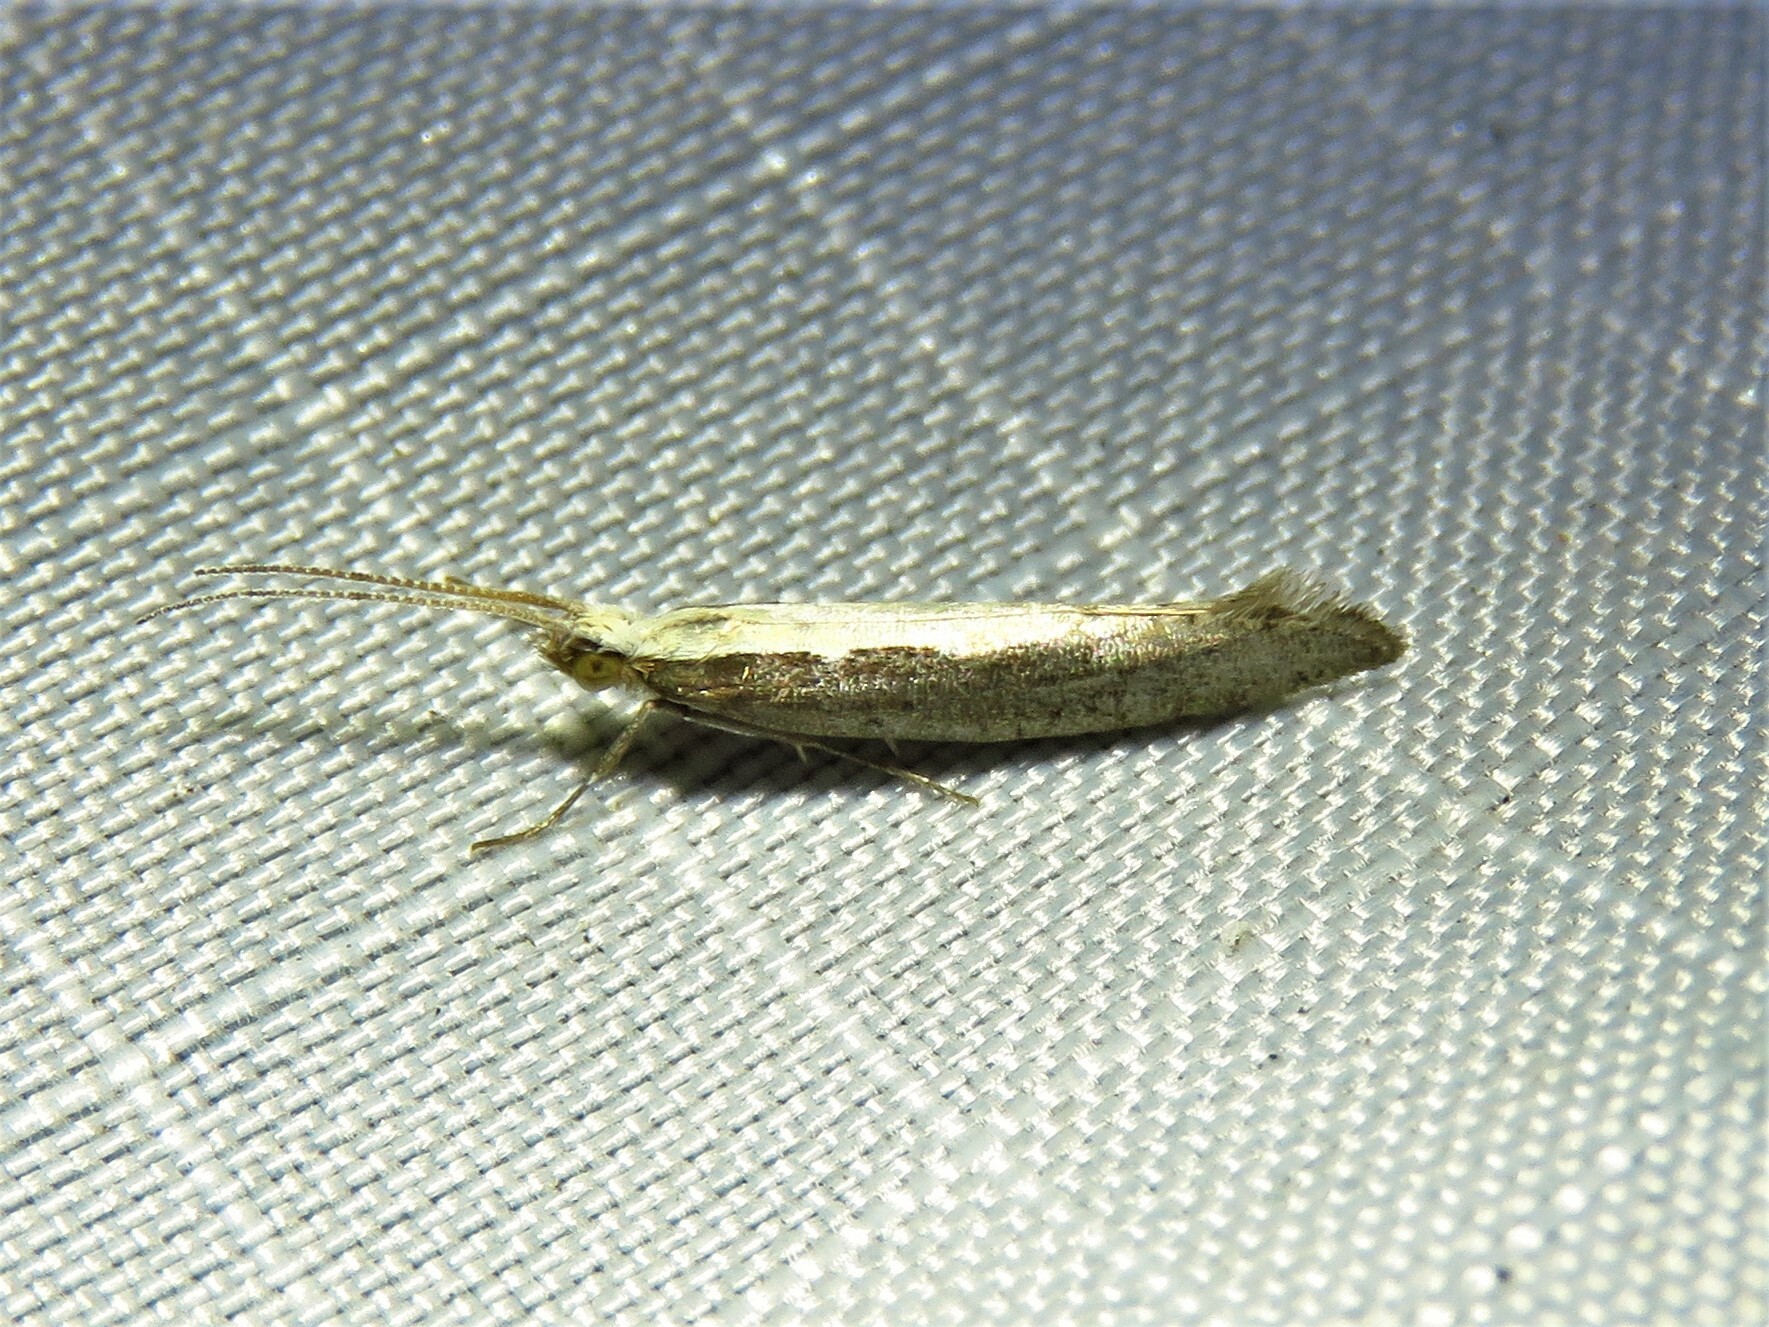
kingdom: Animalia
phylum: Arthropoda
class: Insecta
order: Lepidoptera
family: Plutellidae
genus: Plutella
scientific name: Plutella xylostella
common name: Diamond-back moth
